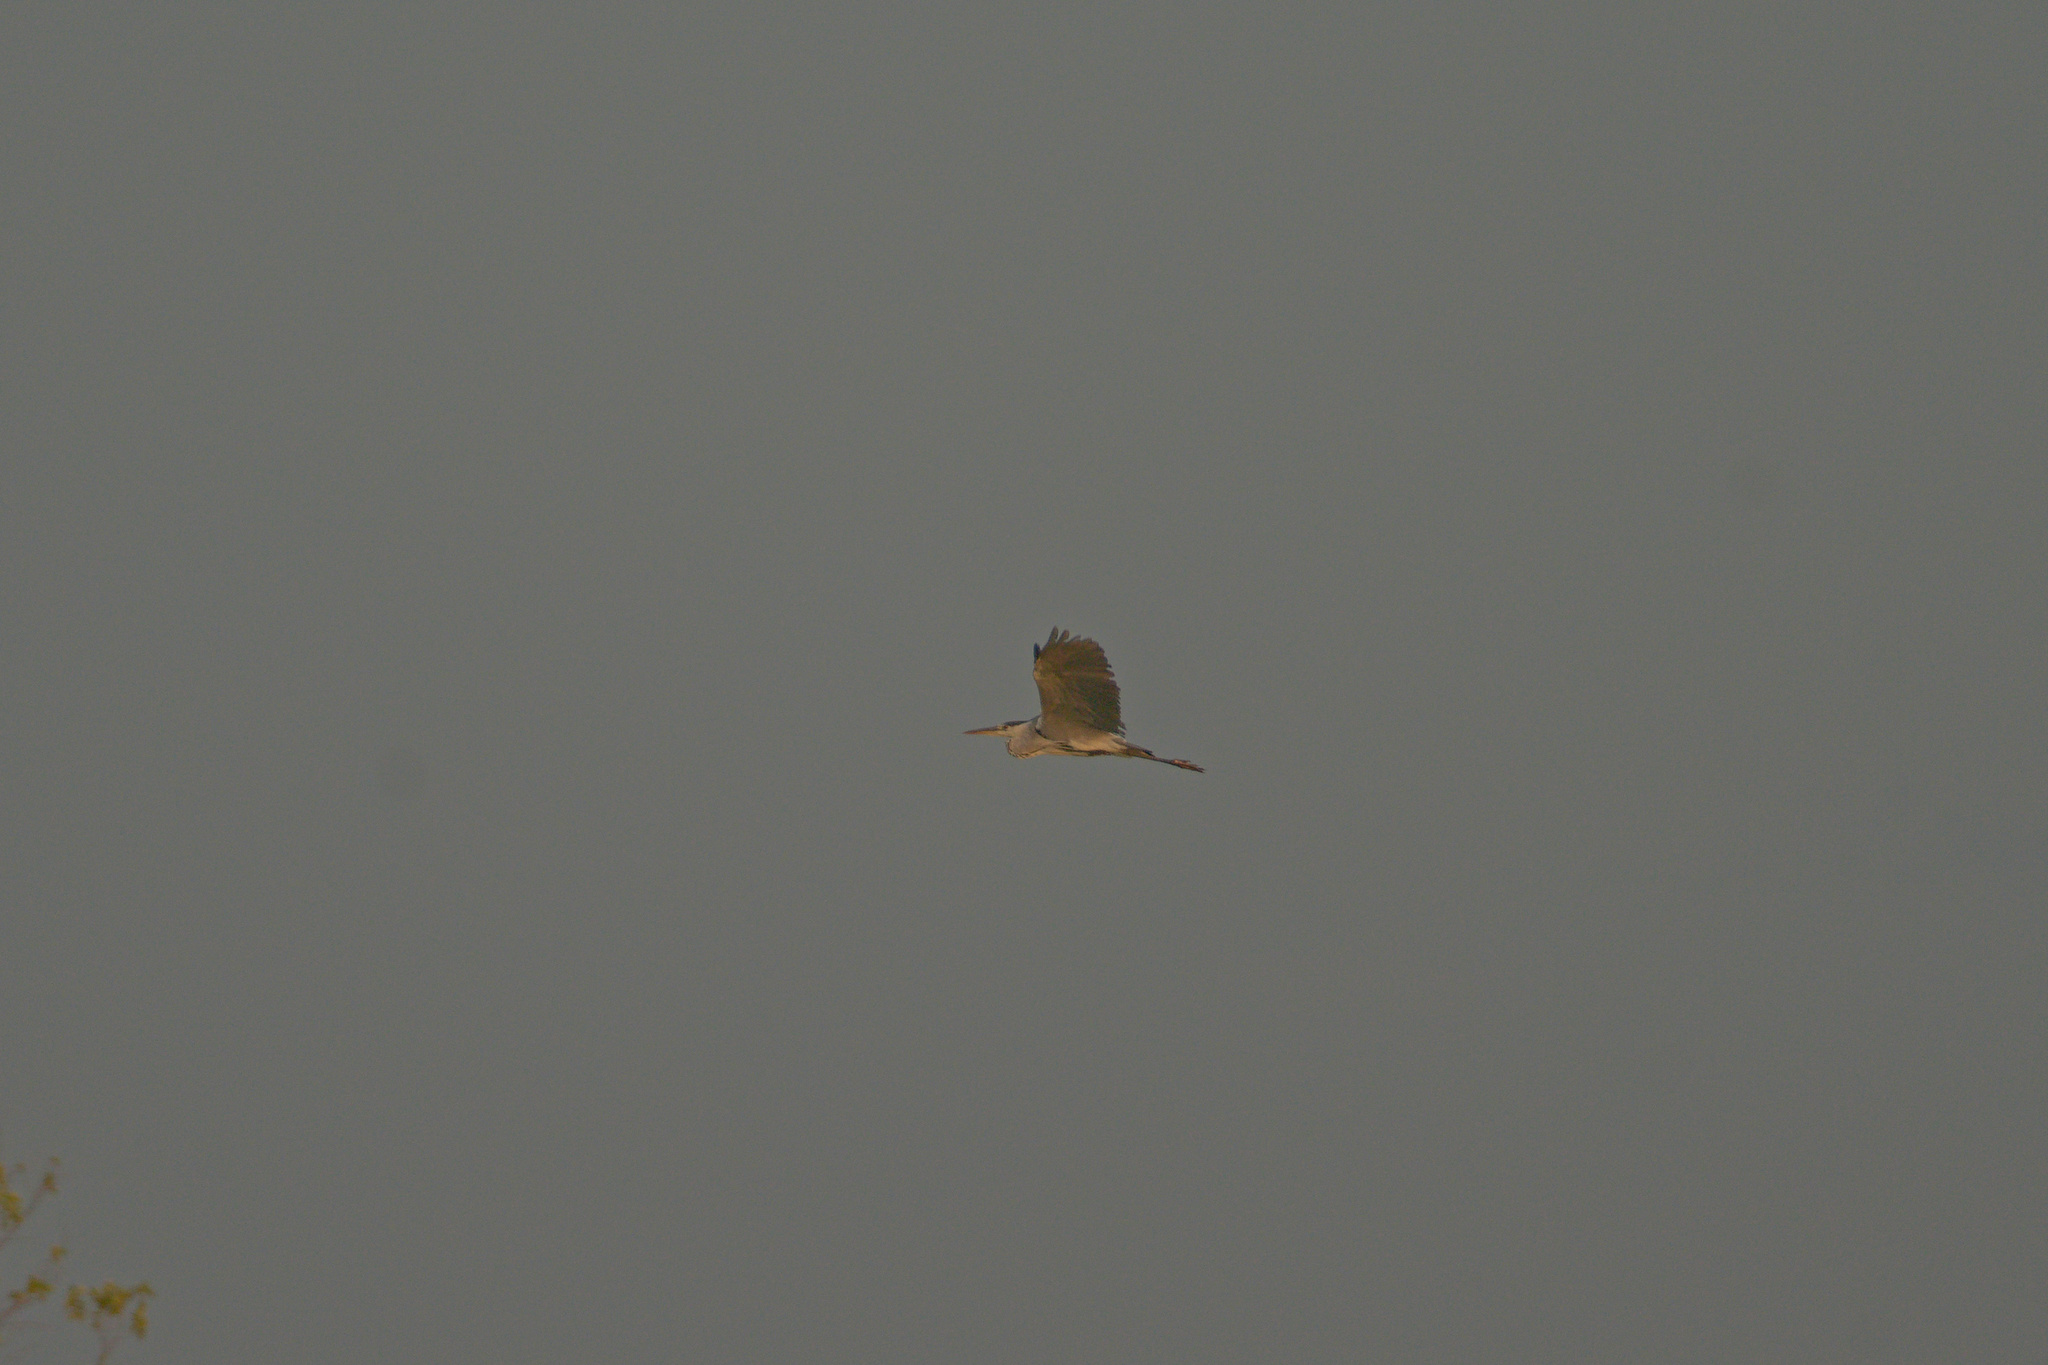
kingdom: Animalia
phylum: Chordata
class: Aves
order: Pelecaniformes
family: Ardeidae
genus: Ardea
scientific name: Ardea cinerea
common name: Grey heron
